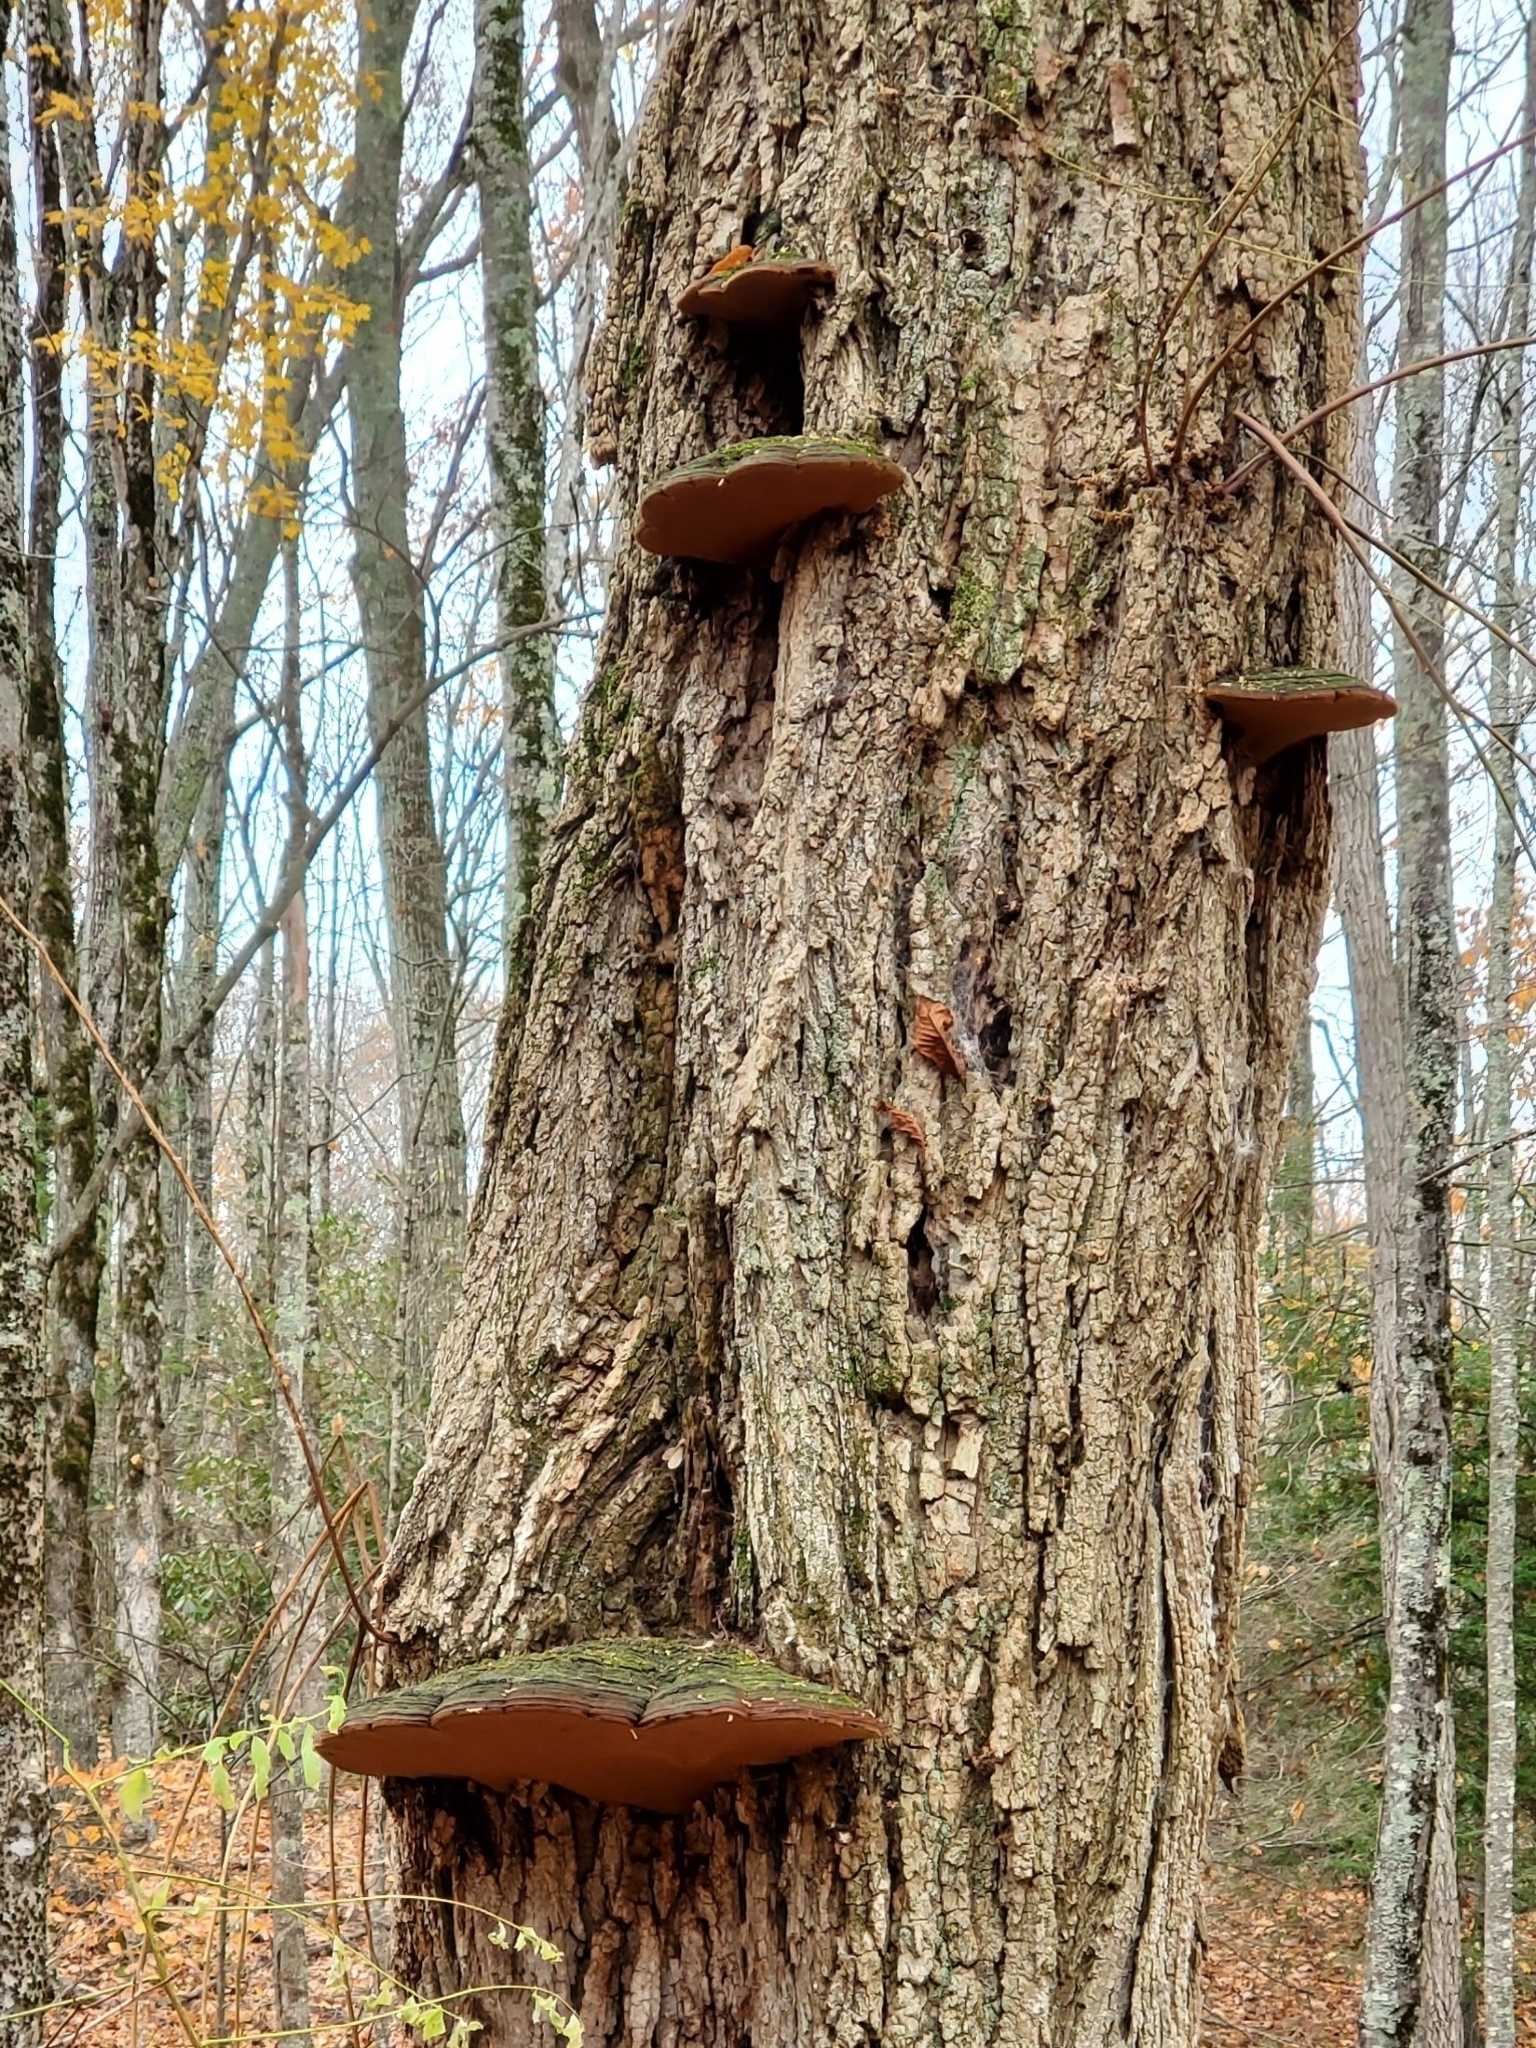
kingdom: Fungi
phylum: Basidiomycota
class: Agaricomycetes
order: Hymenochaetales
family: Hymenochaetaceae
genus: Phellinus
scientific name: Phellinus robiniae
